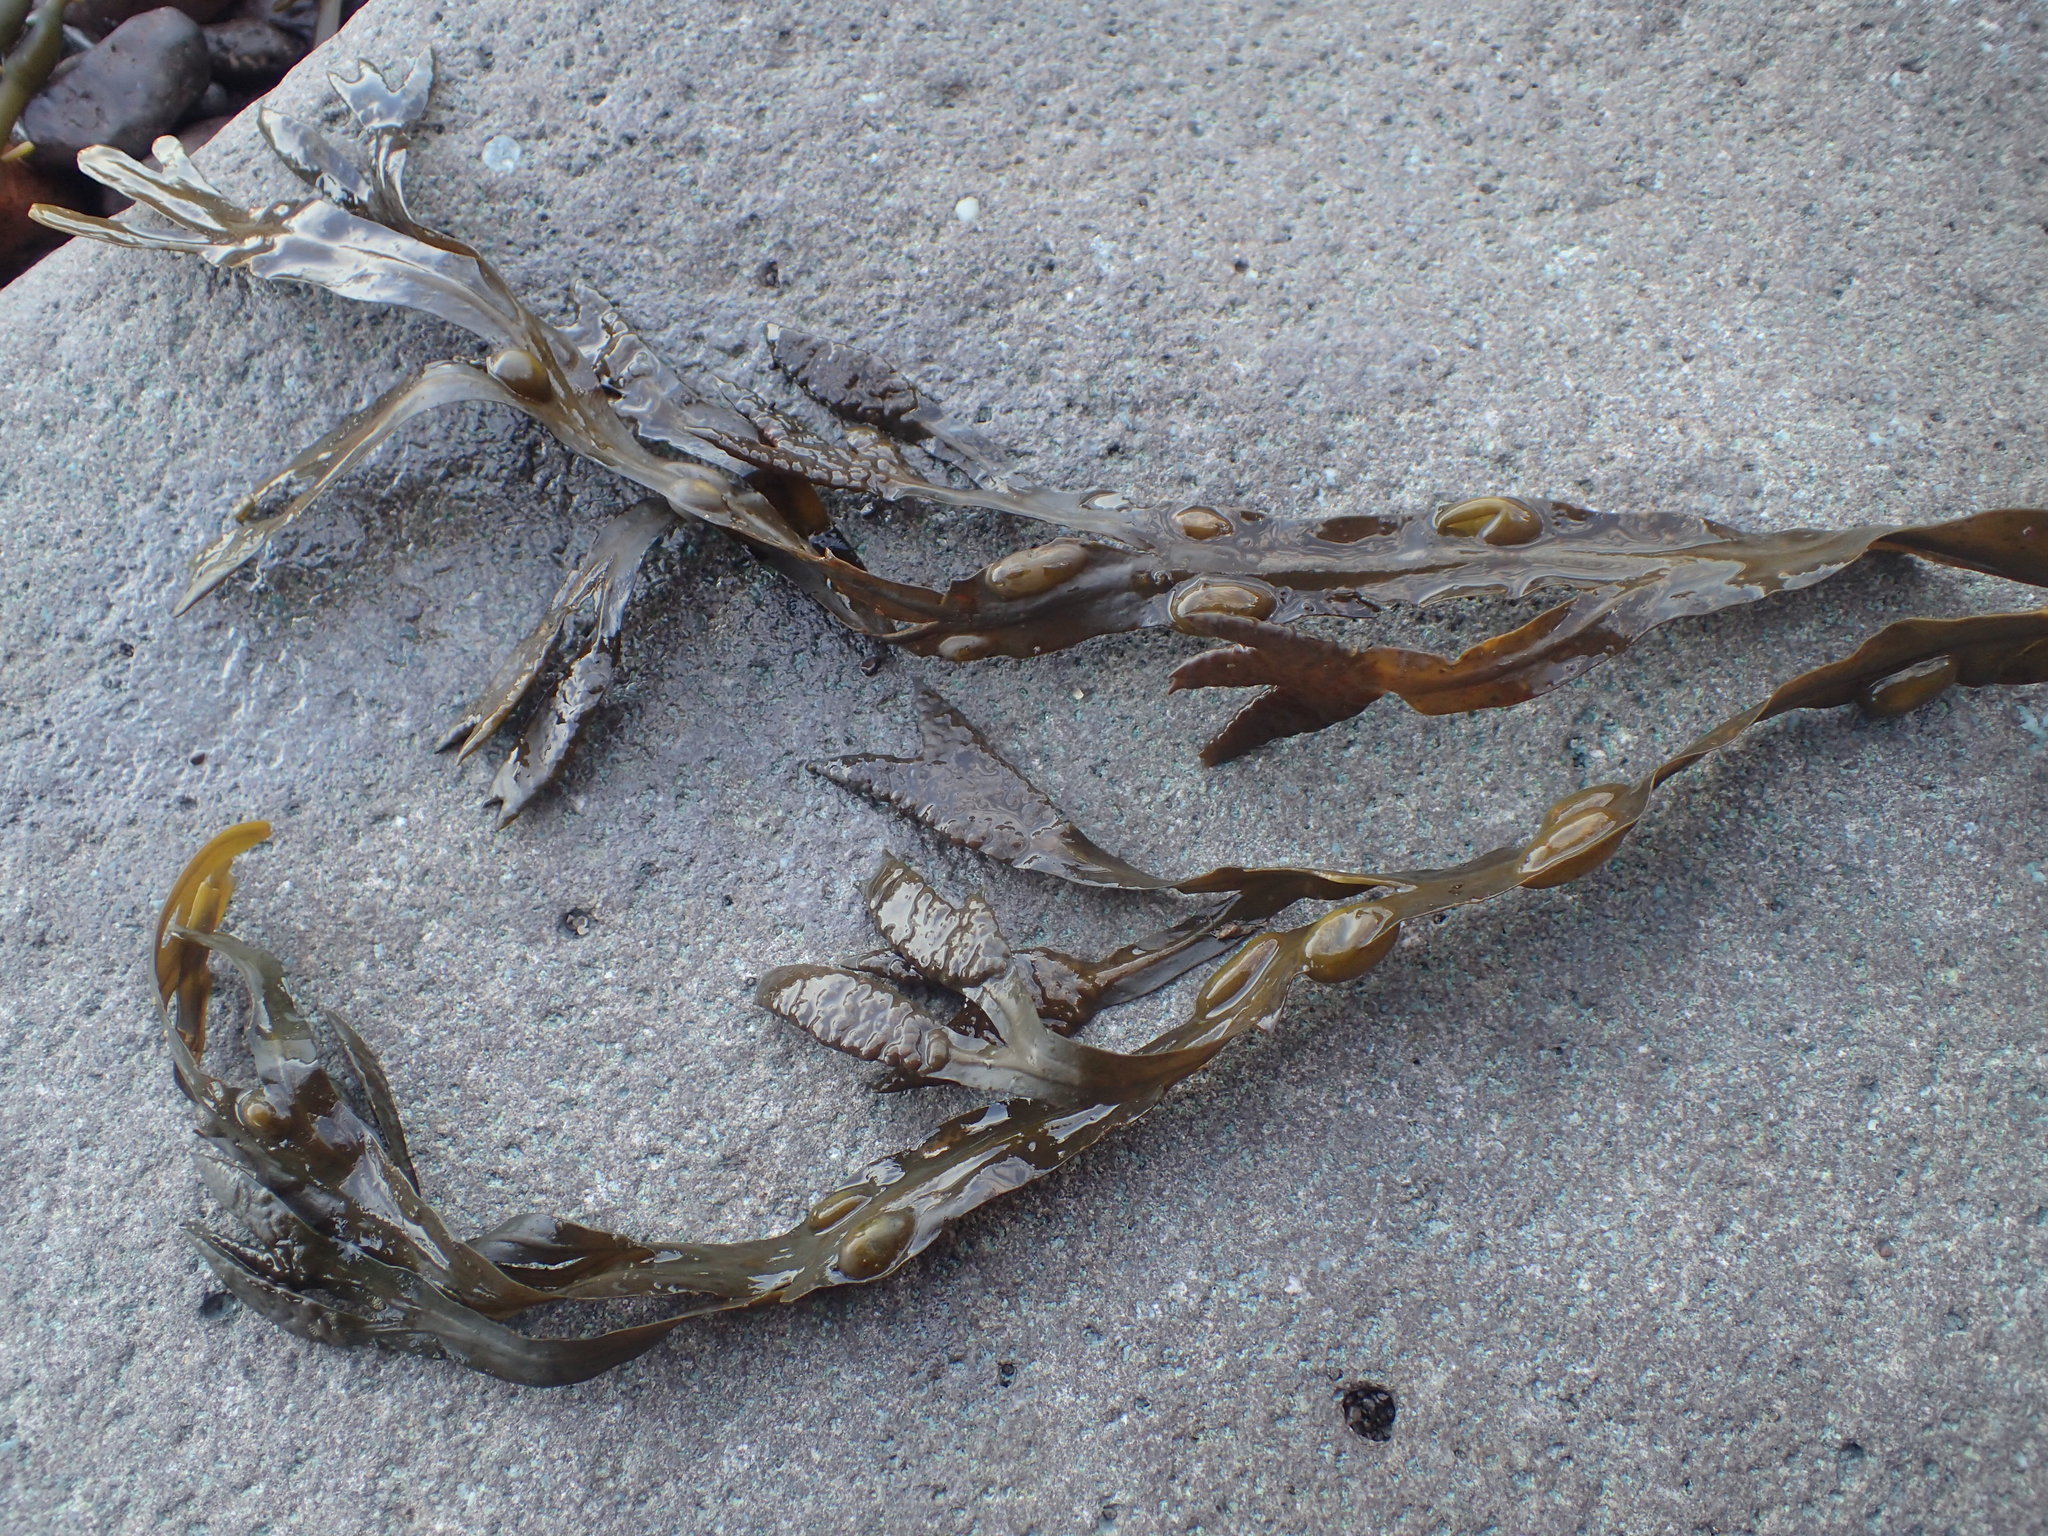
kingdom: Chromista
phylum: Ochrophyta
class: Phaeophyceae
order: Fucales
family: Fucaceae
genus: Fucus
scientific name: Fucus vesiculosus
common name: Bladder wrack
